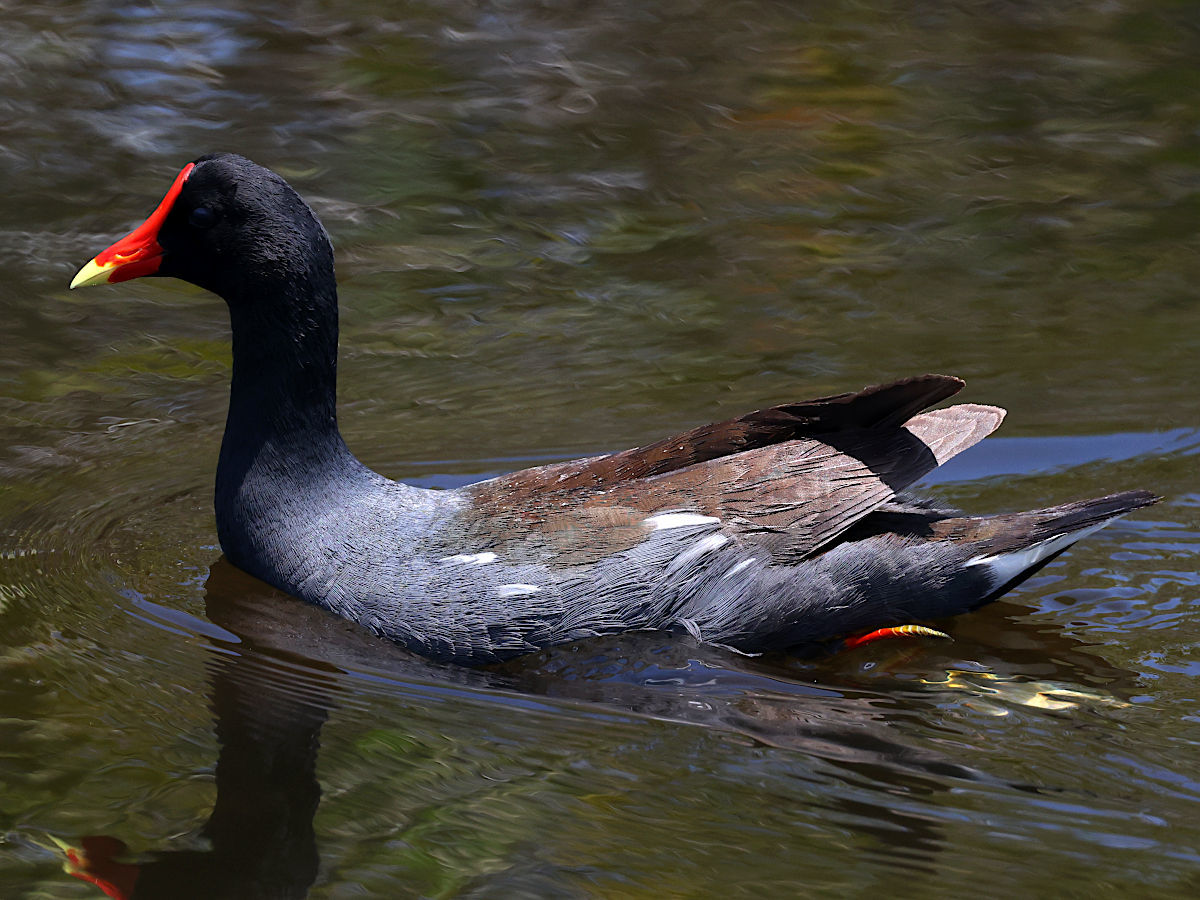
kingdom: Animalia
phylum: Chordata
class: Aves
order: Gruiformes
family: Rallidae
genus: Gallinula
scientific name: Gallinula chloropus
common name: Common moorhen
